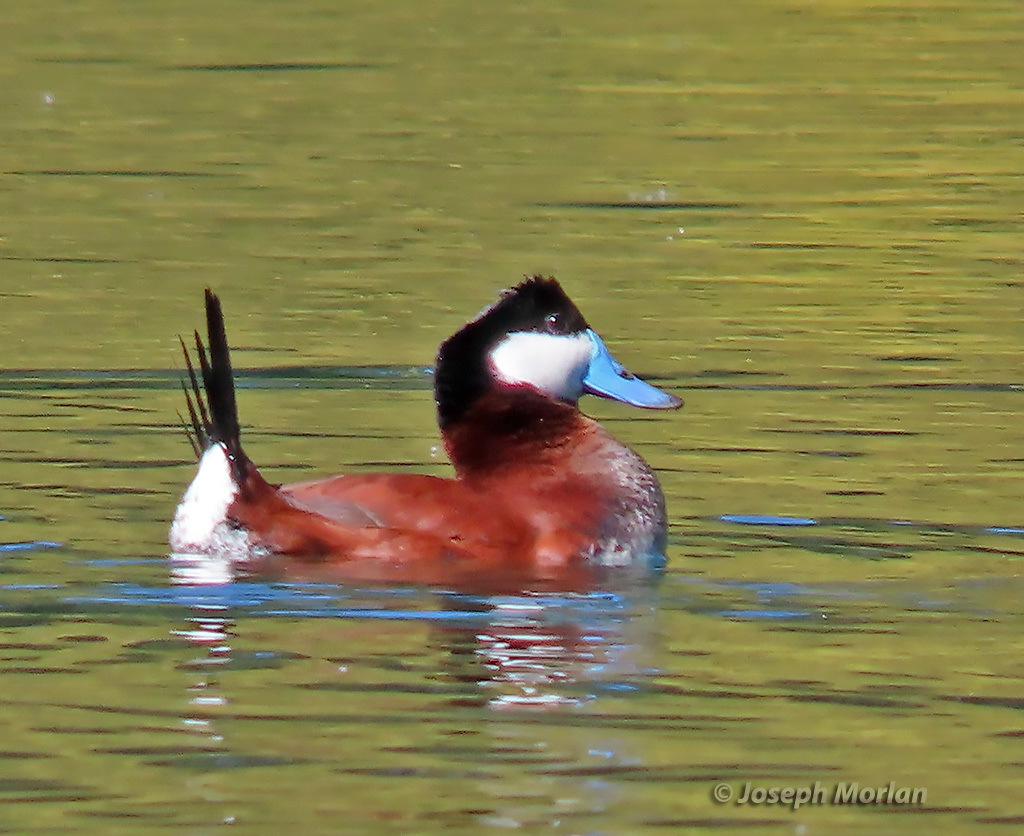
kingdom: Animalia
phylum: Chordata
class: Aves
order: Anseriformes
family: Anatidae
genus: Oxyura
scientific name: Oxyura jamaicensis
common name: Ruddy duck
